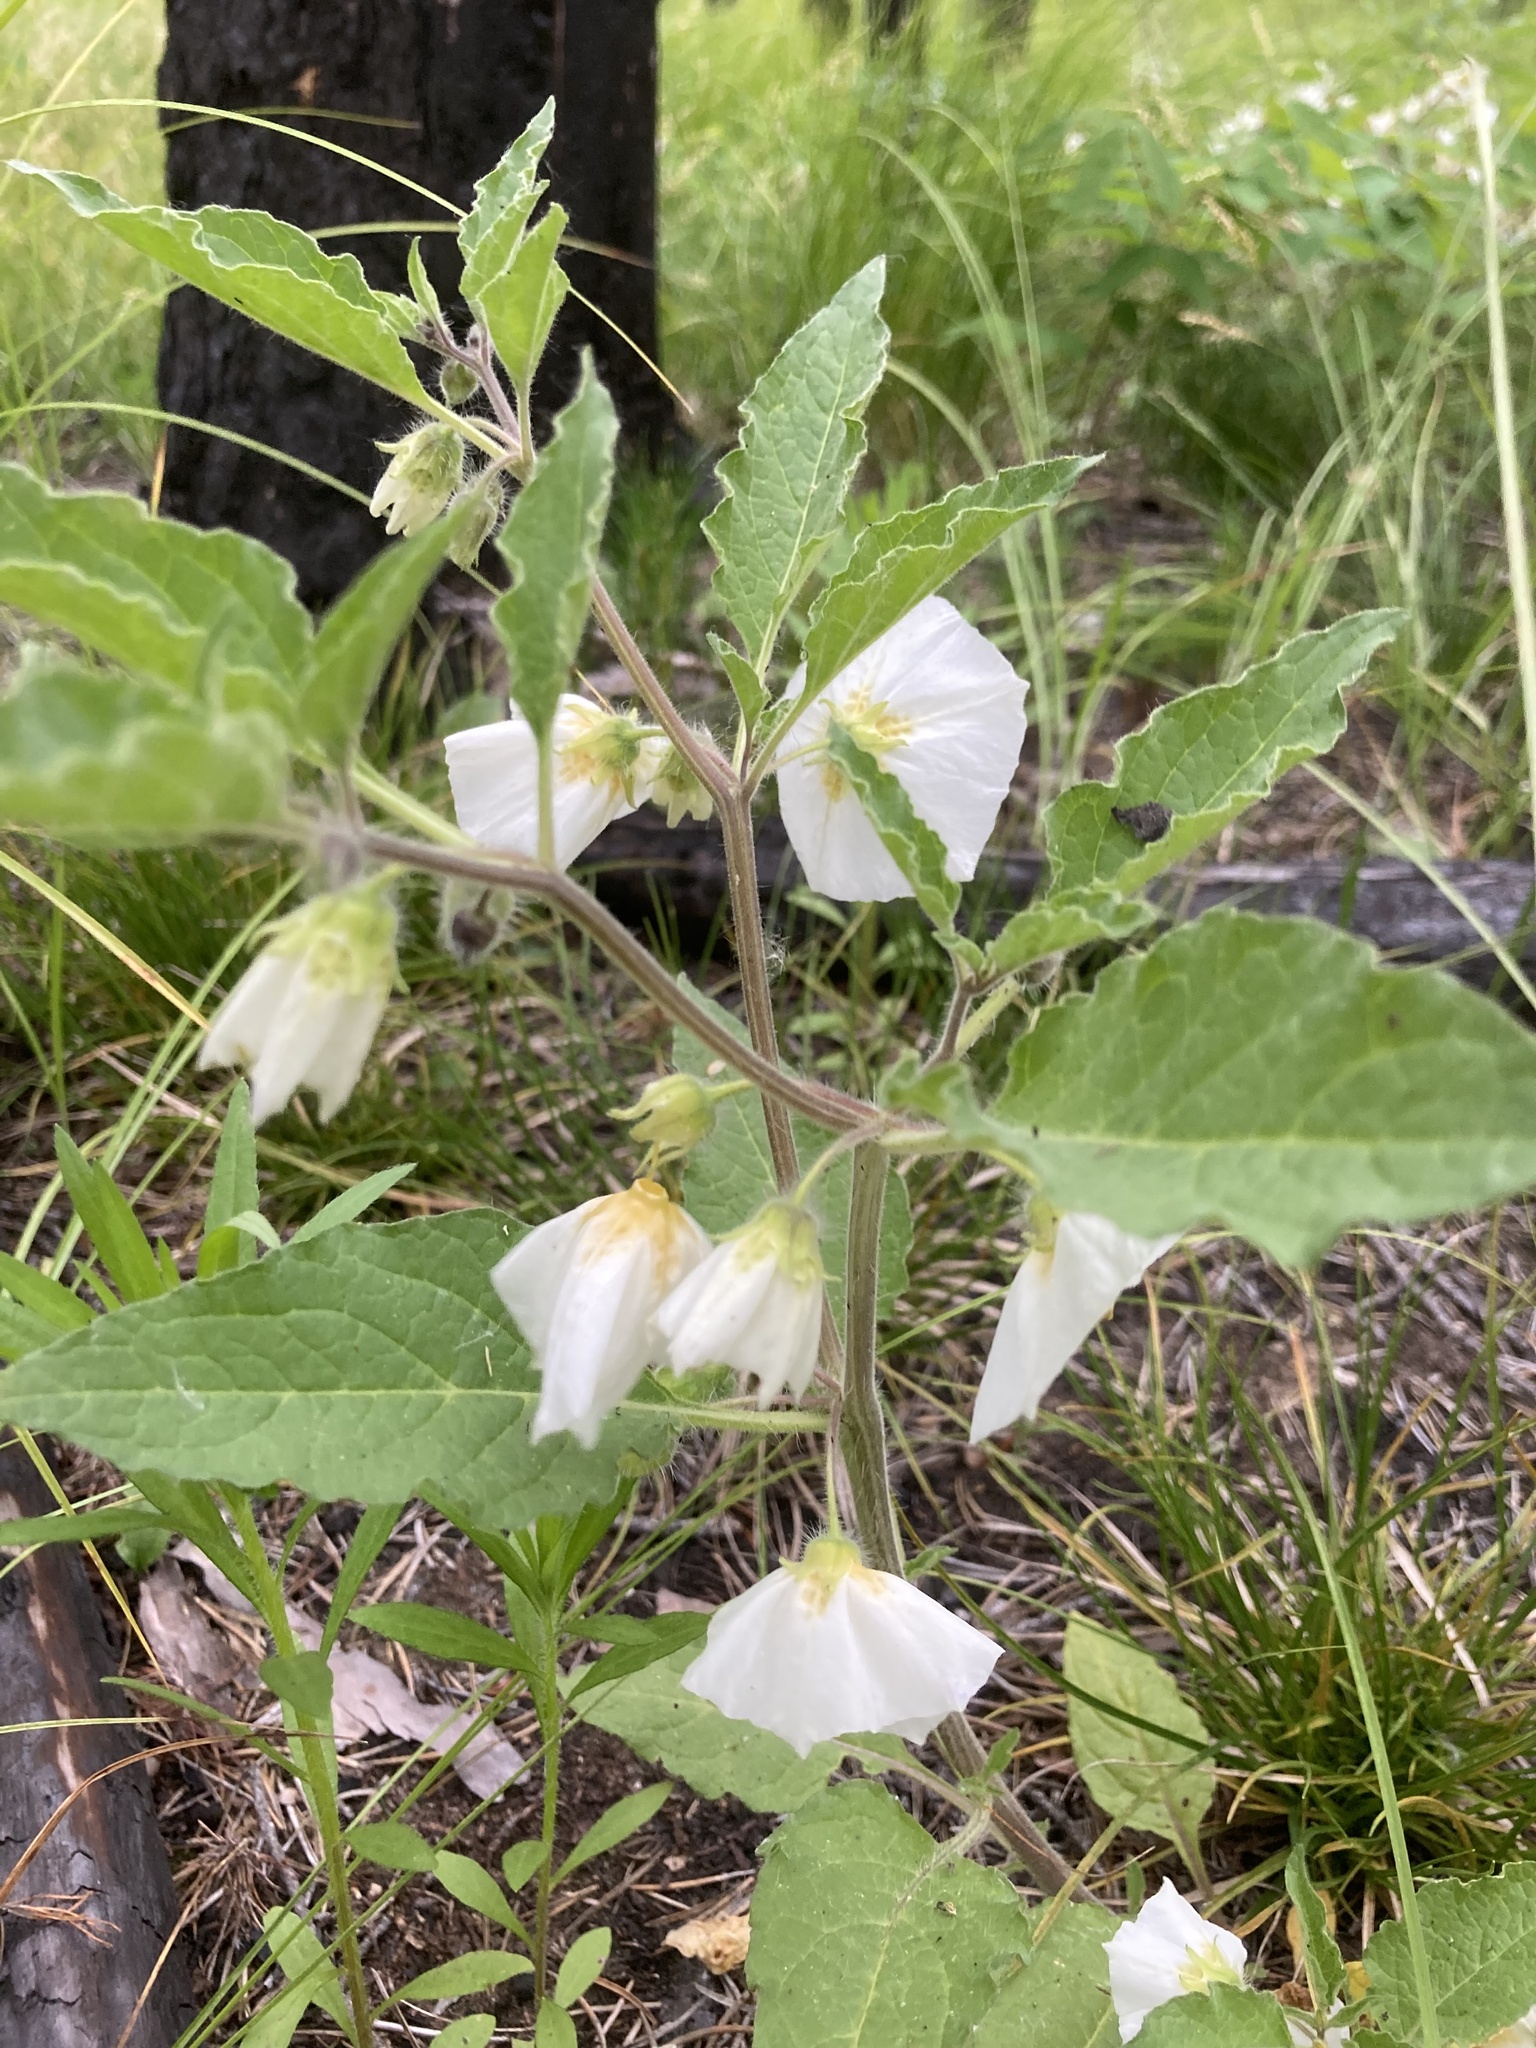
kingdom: Plantae
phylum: Tracheophyta
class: Magnoliopsida
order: Solanales
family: Solanaceae
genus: Leucophysalis
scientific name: Leucophysalis grandiflora
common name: Large false ground-cherry
